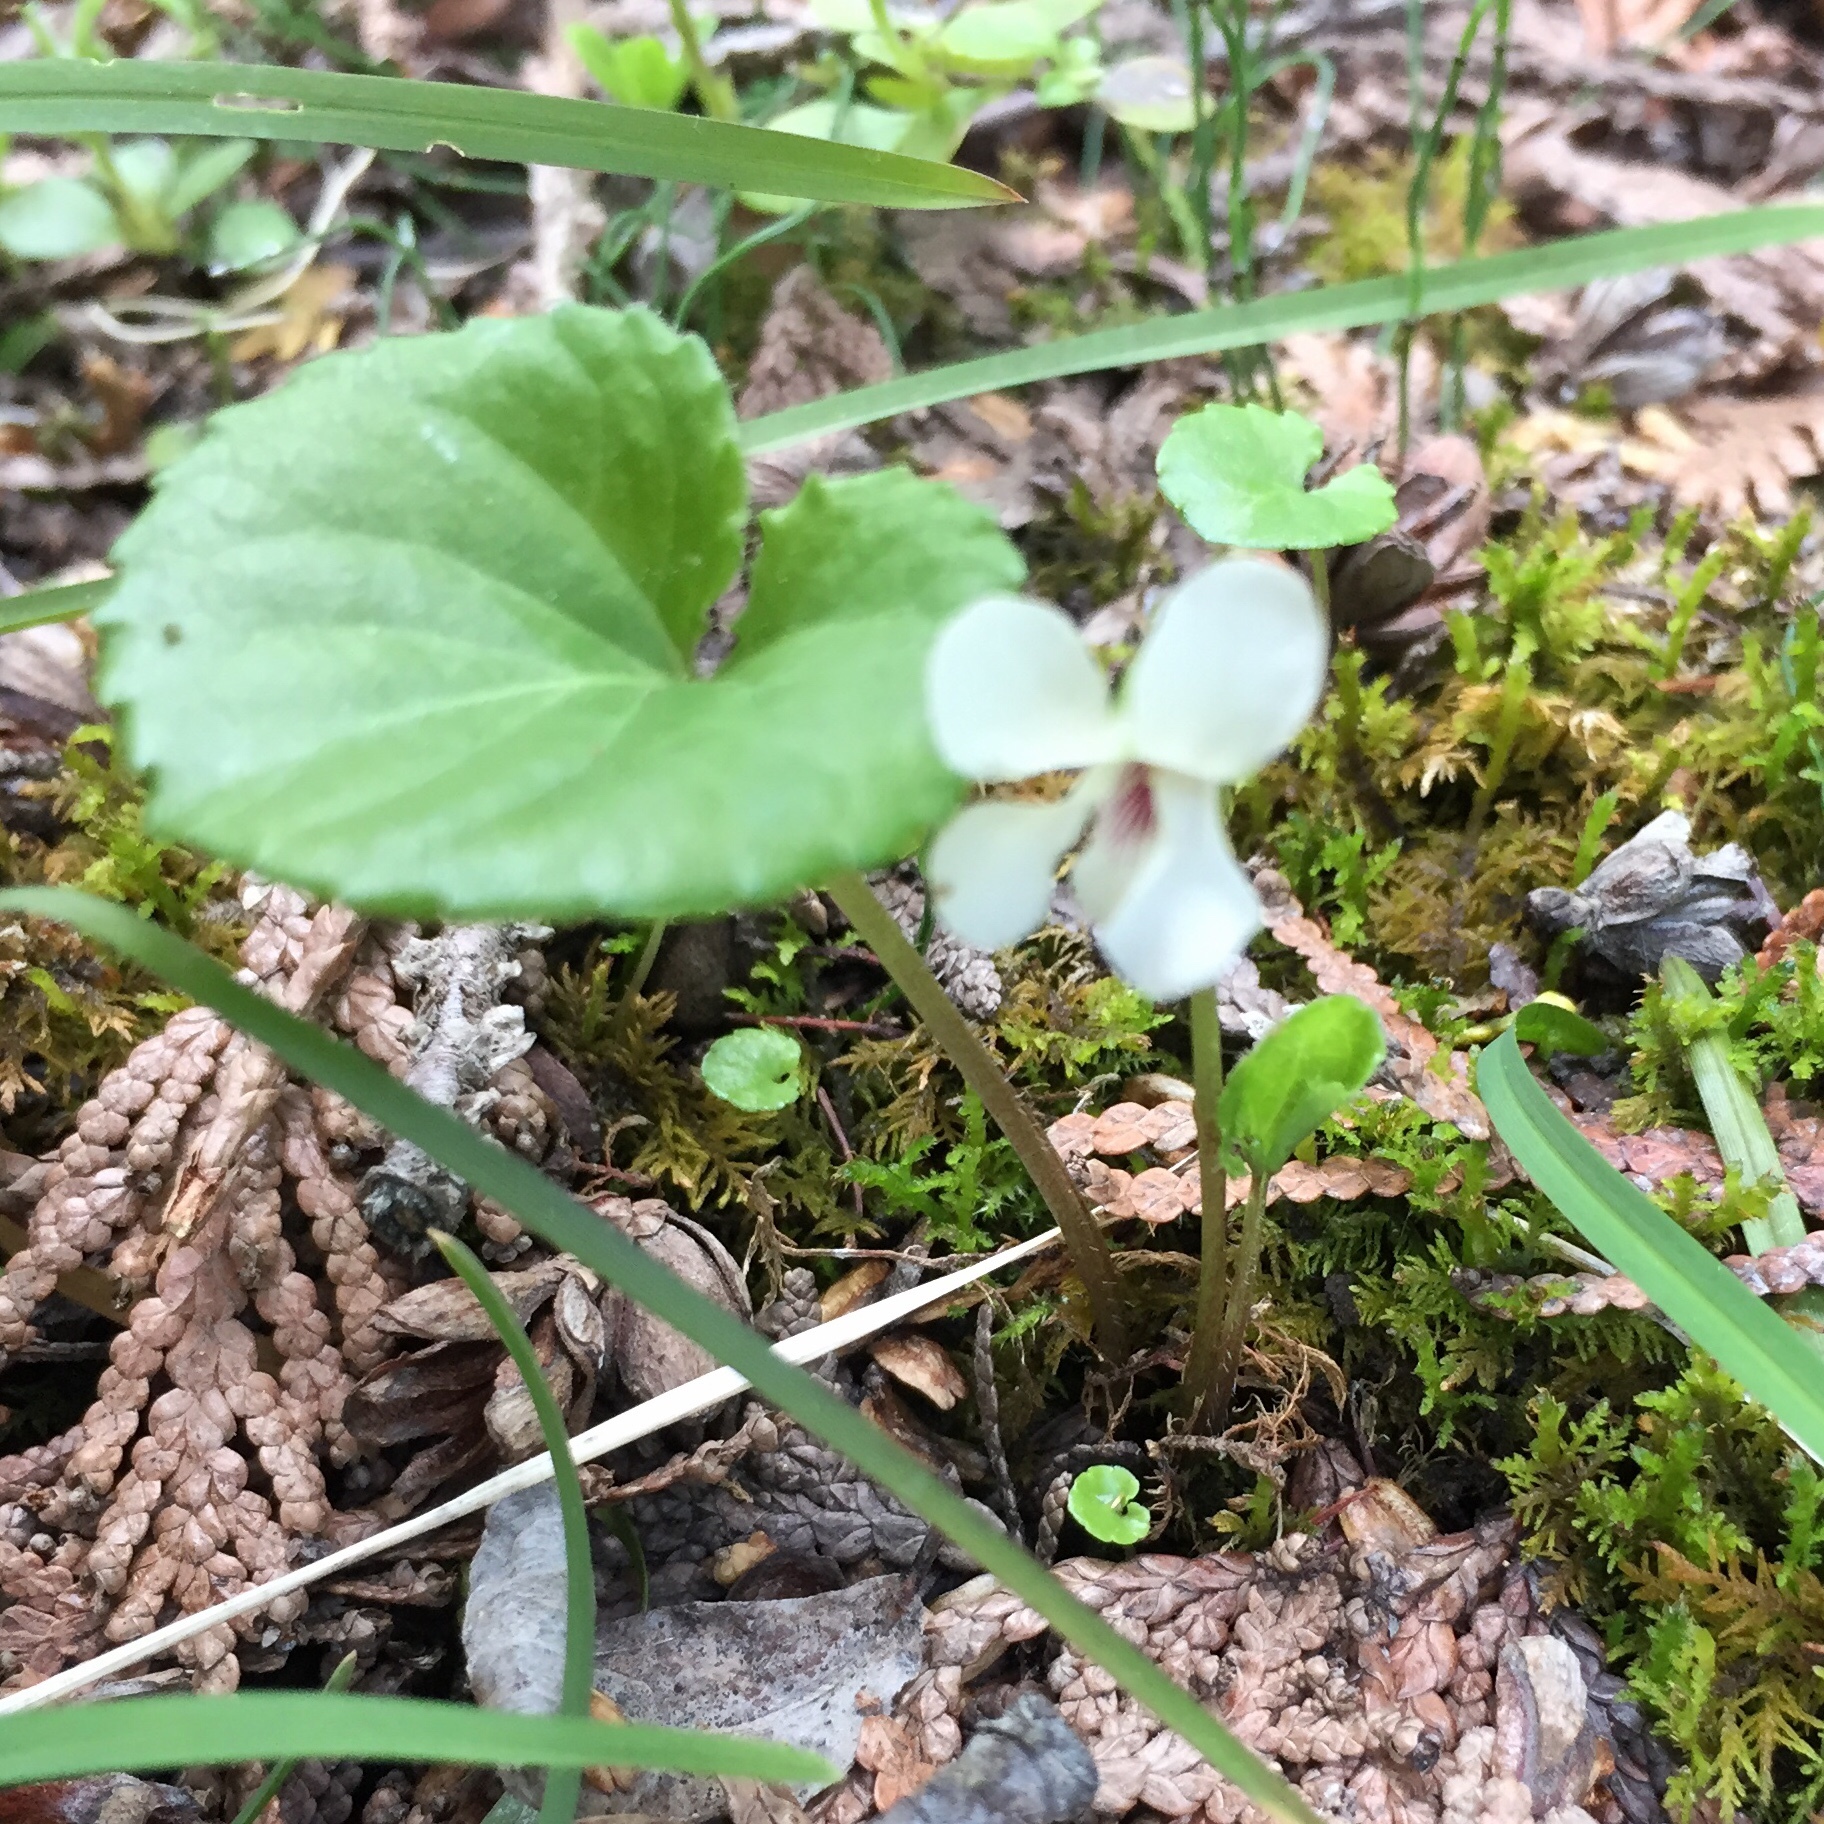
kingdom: Plantae
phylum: Tracheophyta
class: Magnoliopsida
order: Malpighiales
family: Violaceae
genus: Viola
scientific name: Viola renifolia
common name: Kidney-leaf violet
